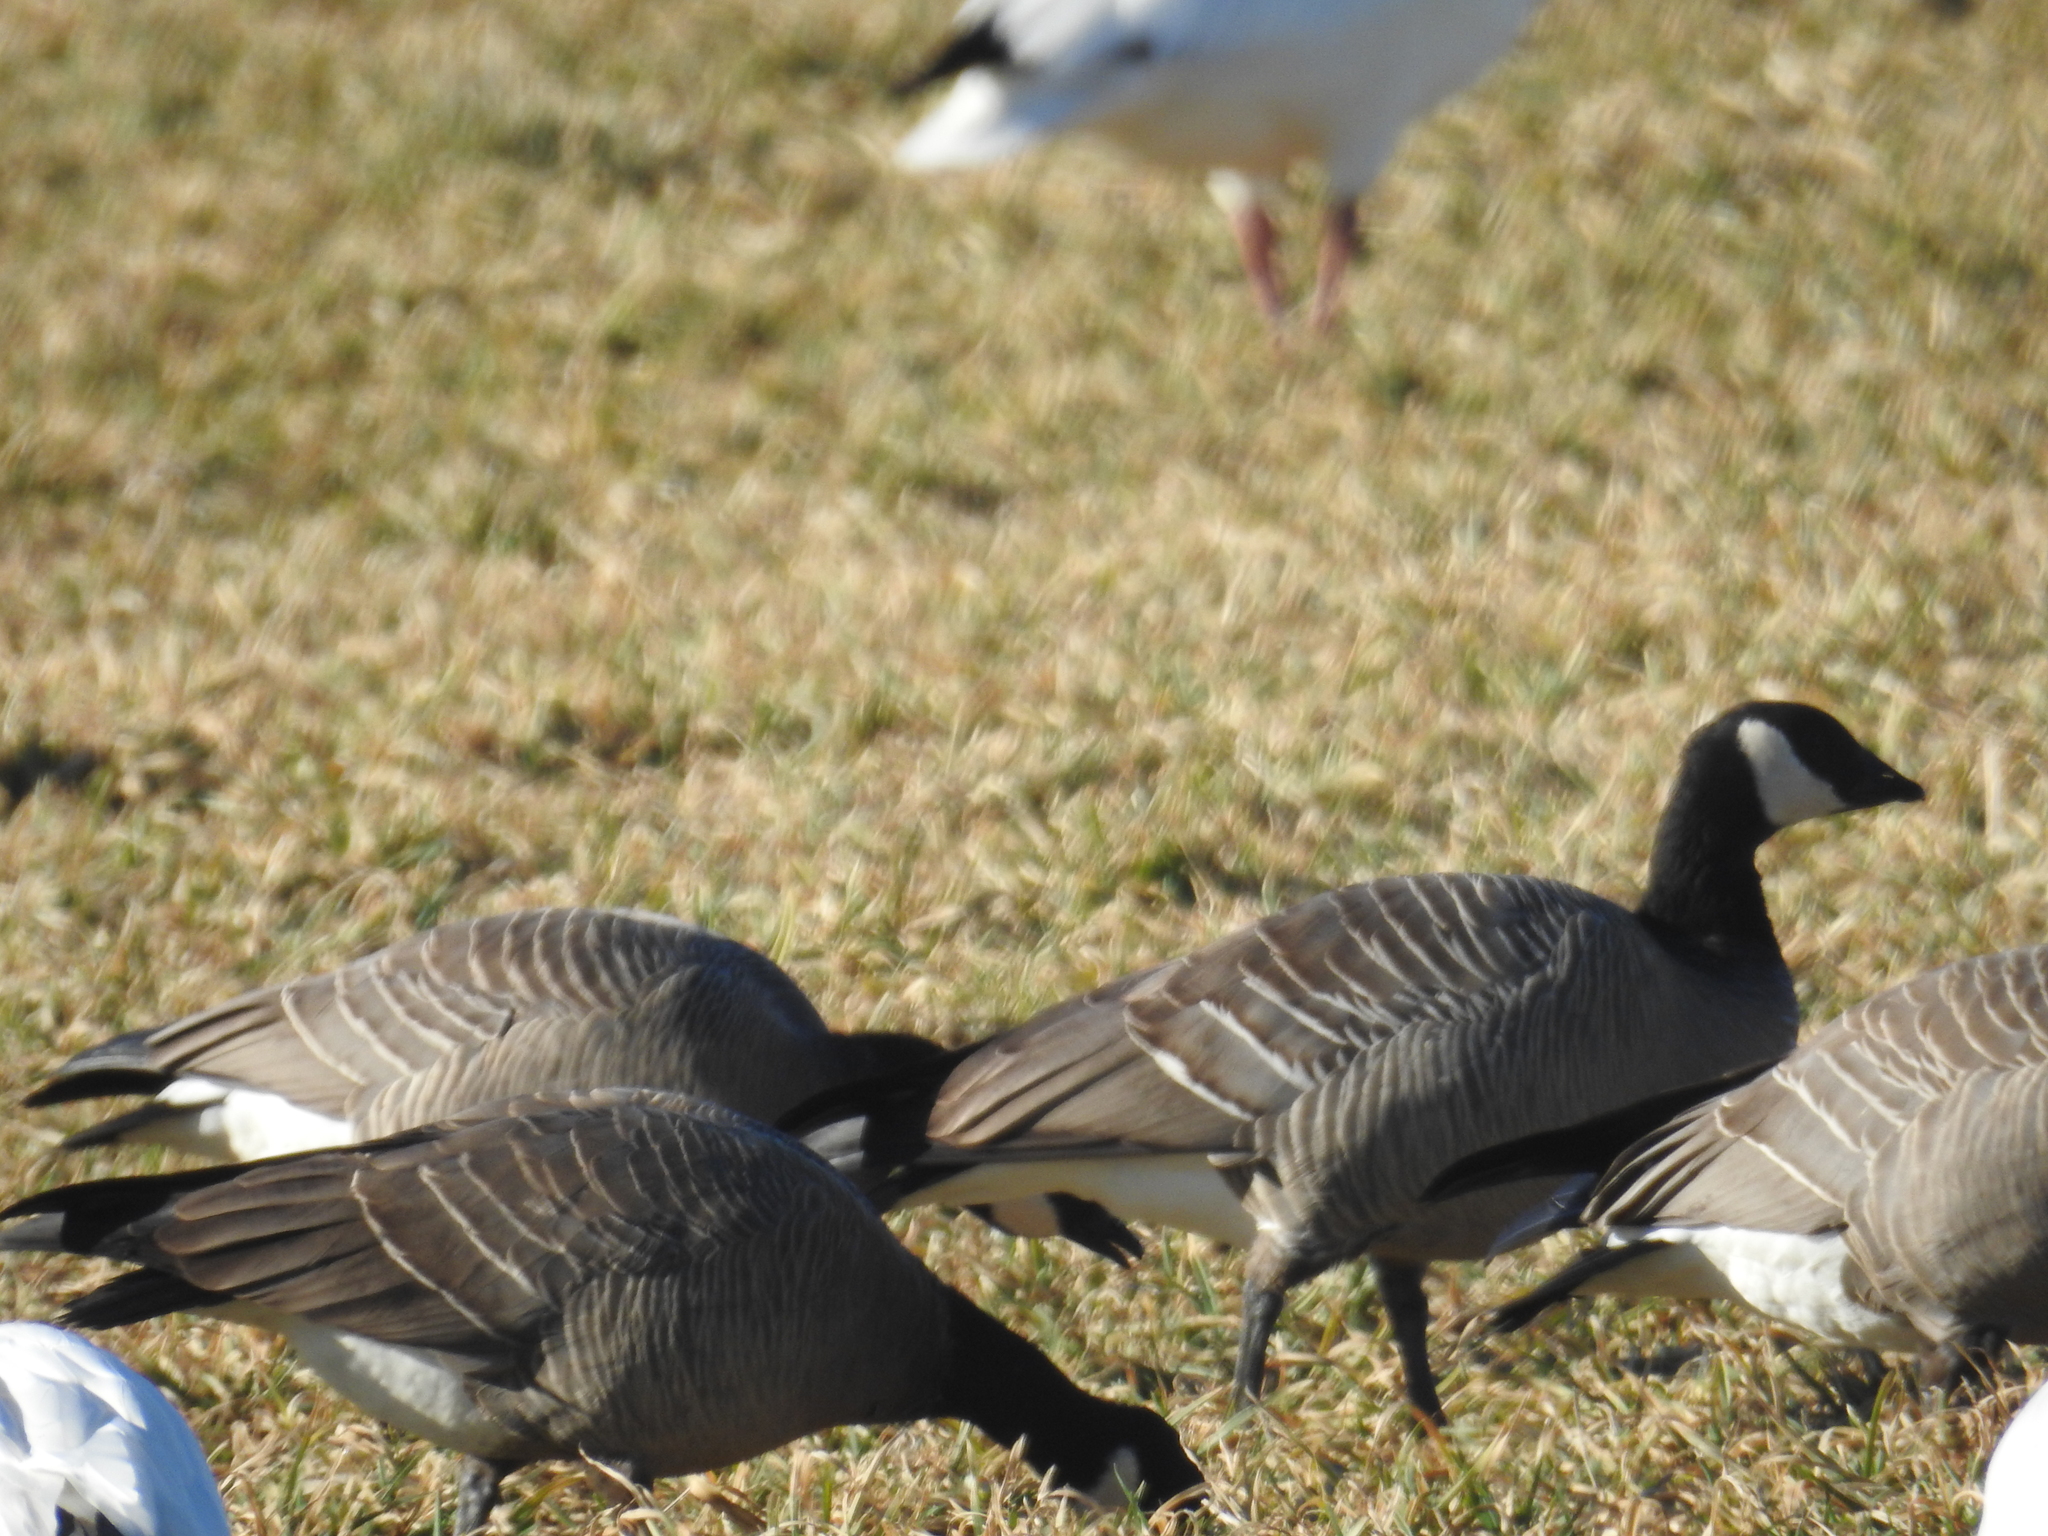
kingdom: Animalia
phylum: Chordata
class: Aves
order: Anseriformes
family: Anatidae
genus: Branta
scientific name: Branta hutchinsii
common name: Cackling goose
